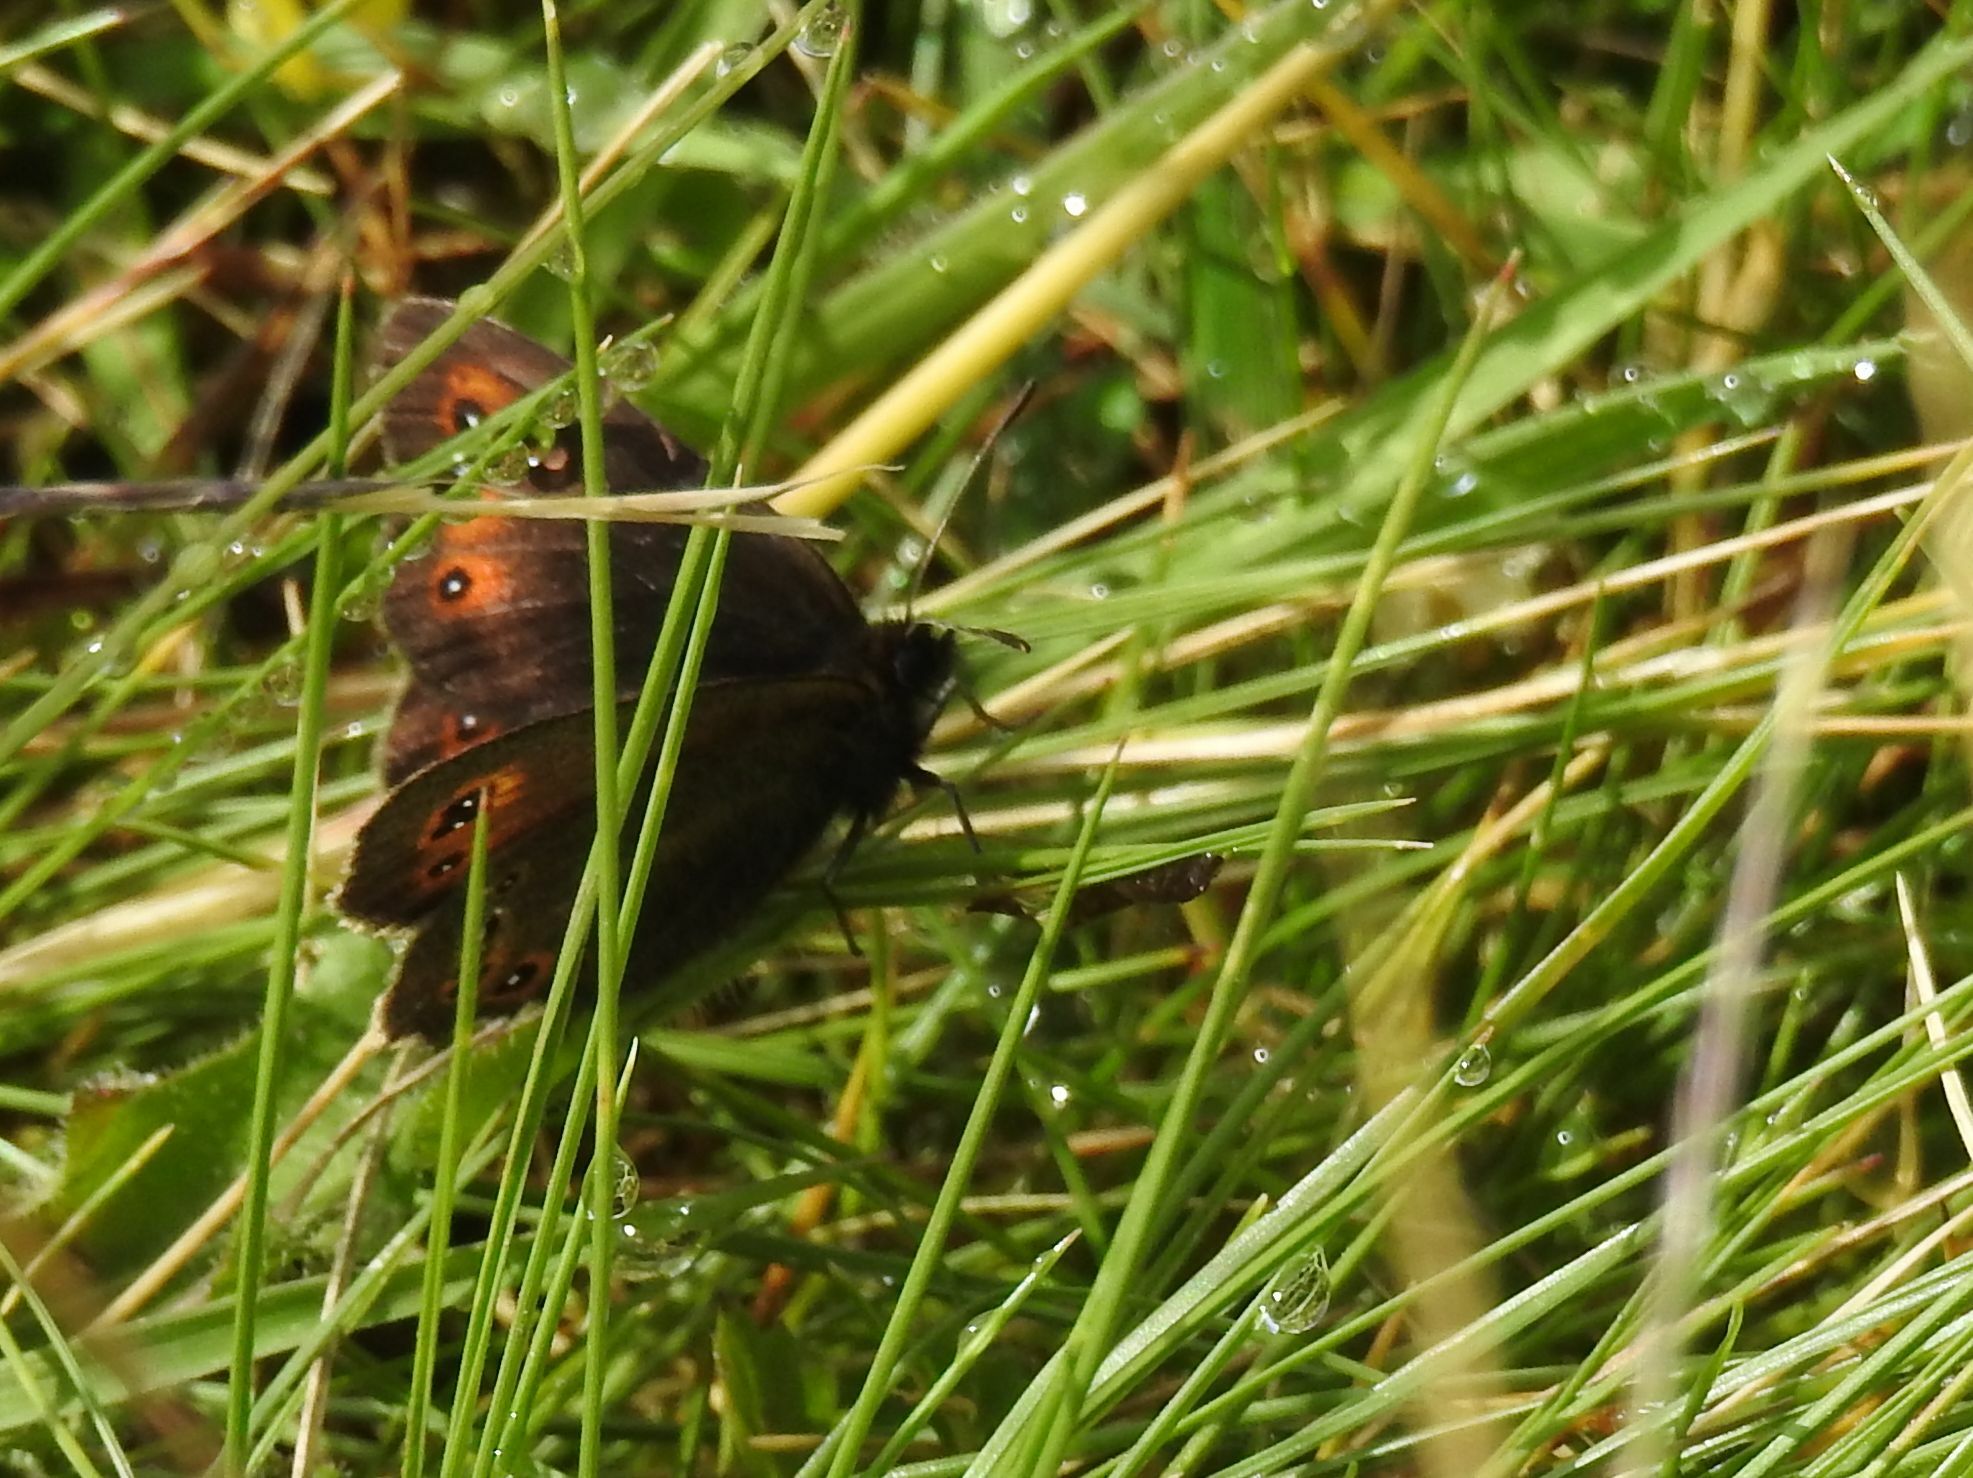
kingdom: Animalia
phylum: Arthropoda
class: Insecta
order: Lepidoptera
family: Nymphalidae
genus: Erebia
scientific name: Erebia oeme
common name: Bright-eyed ringlet
